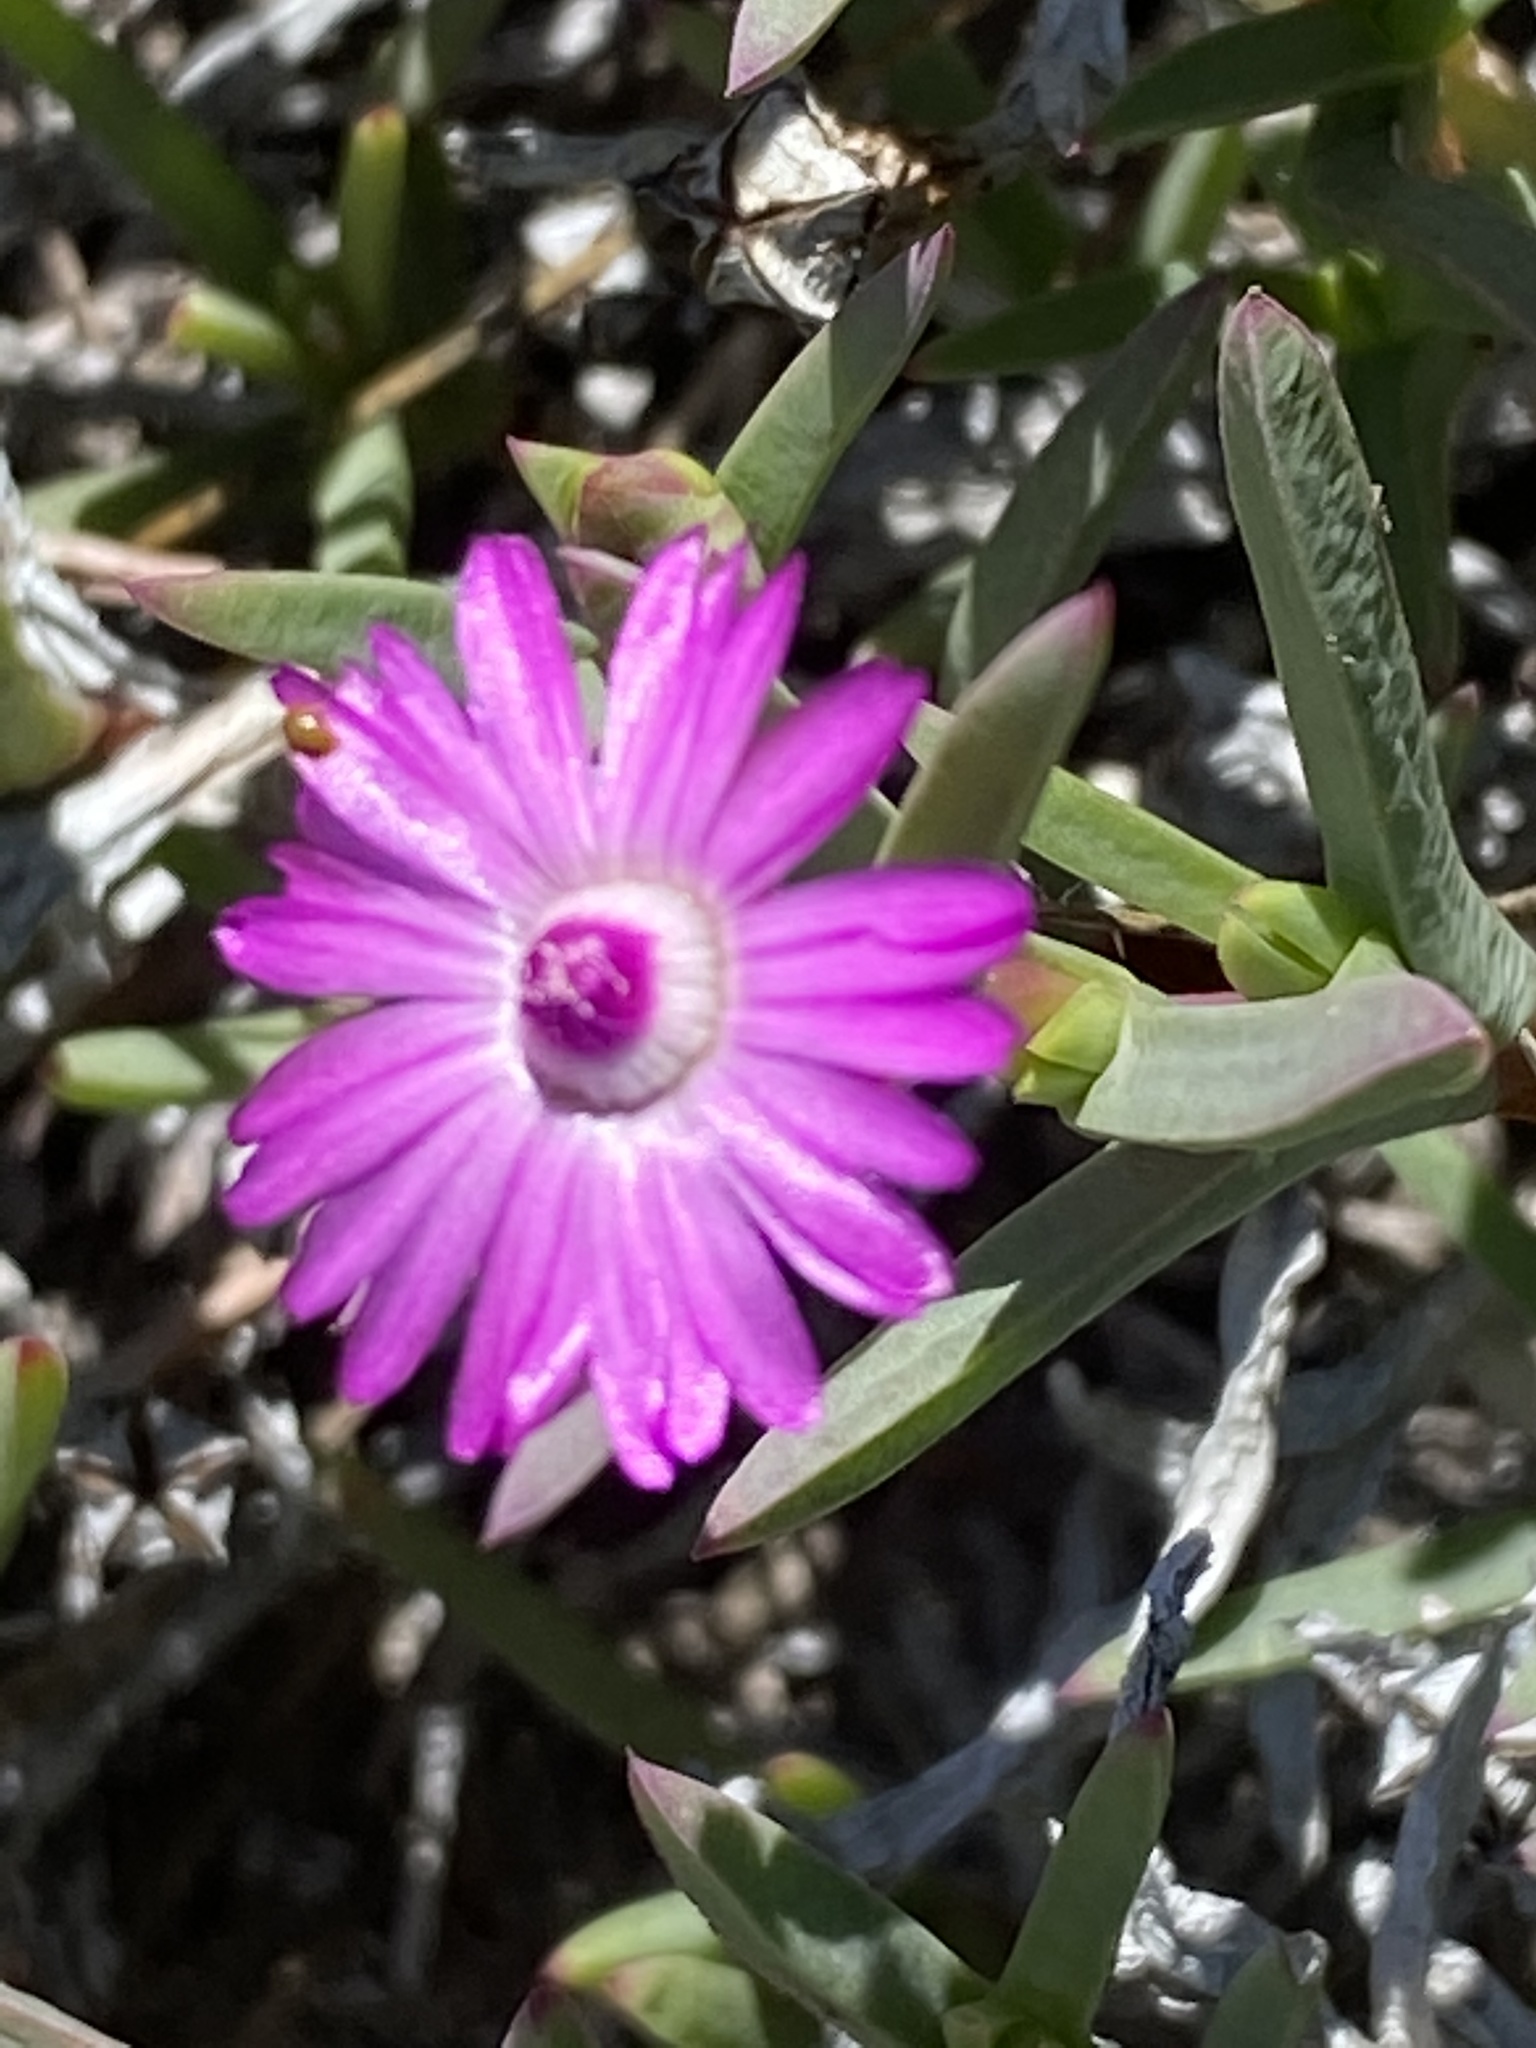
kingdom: Plantae
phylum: Tracheophyta
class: Magnoliopsida
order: Caryophyllales
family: Aizoaceae
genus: Ruschia
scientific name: Ruschia calcicola
